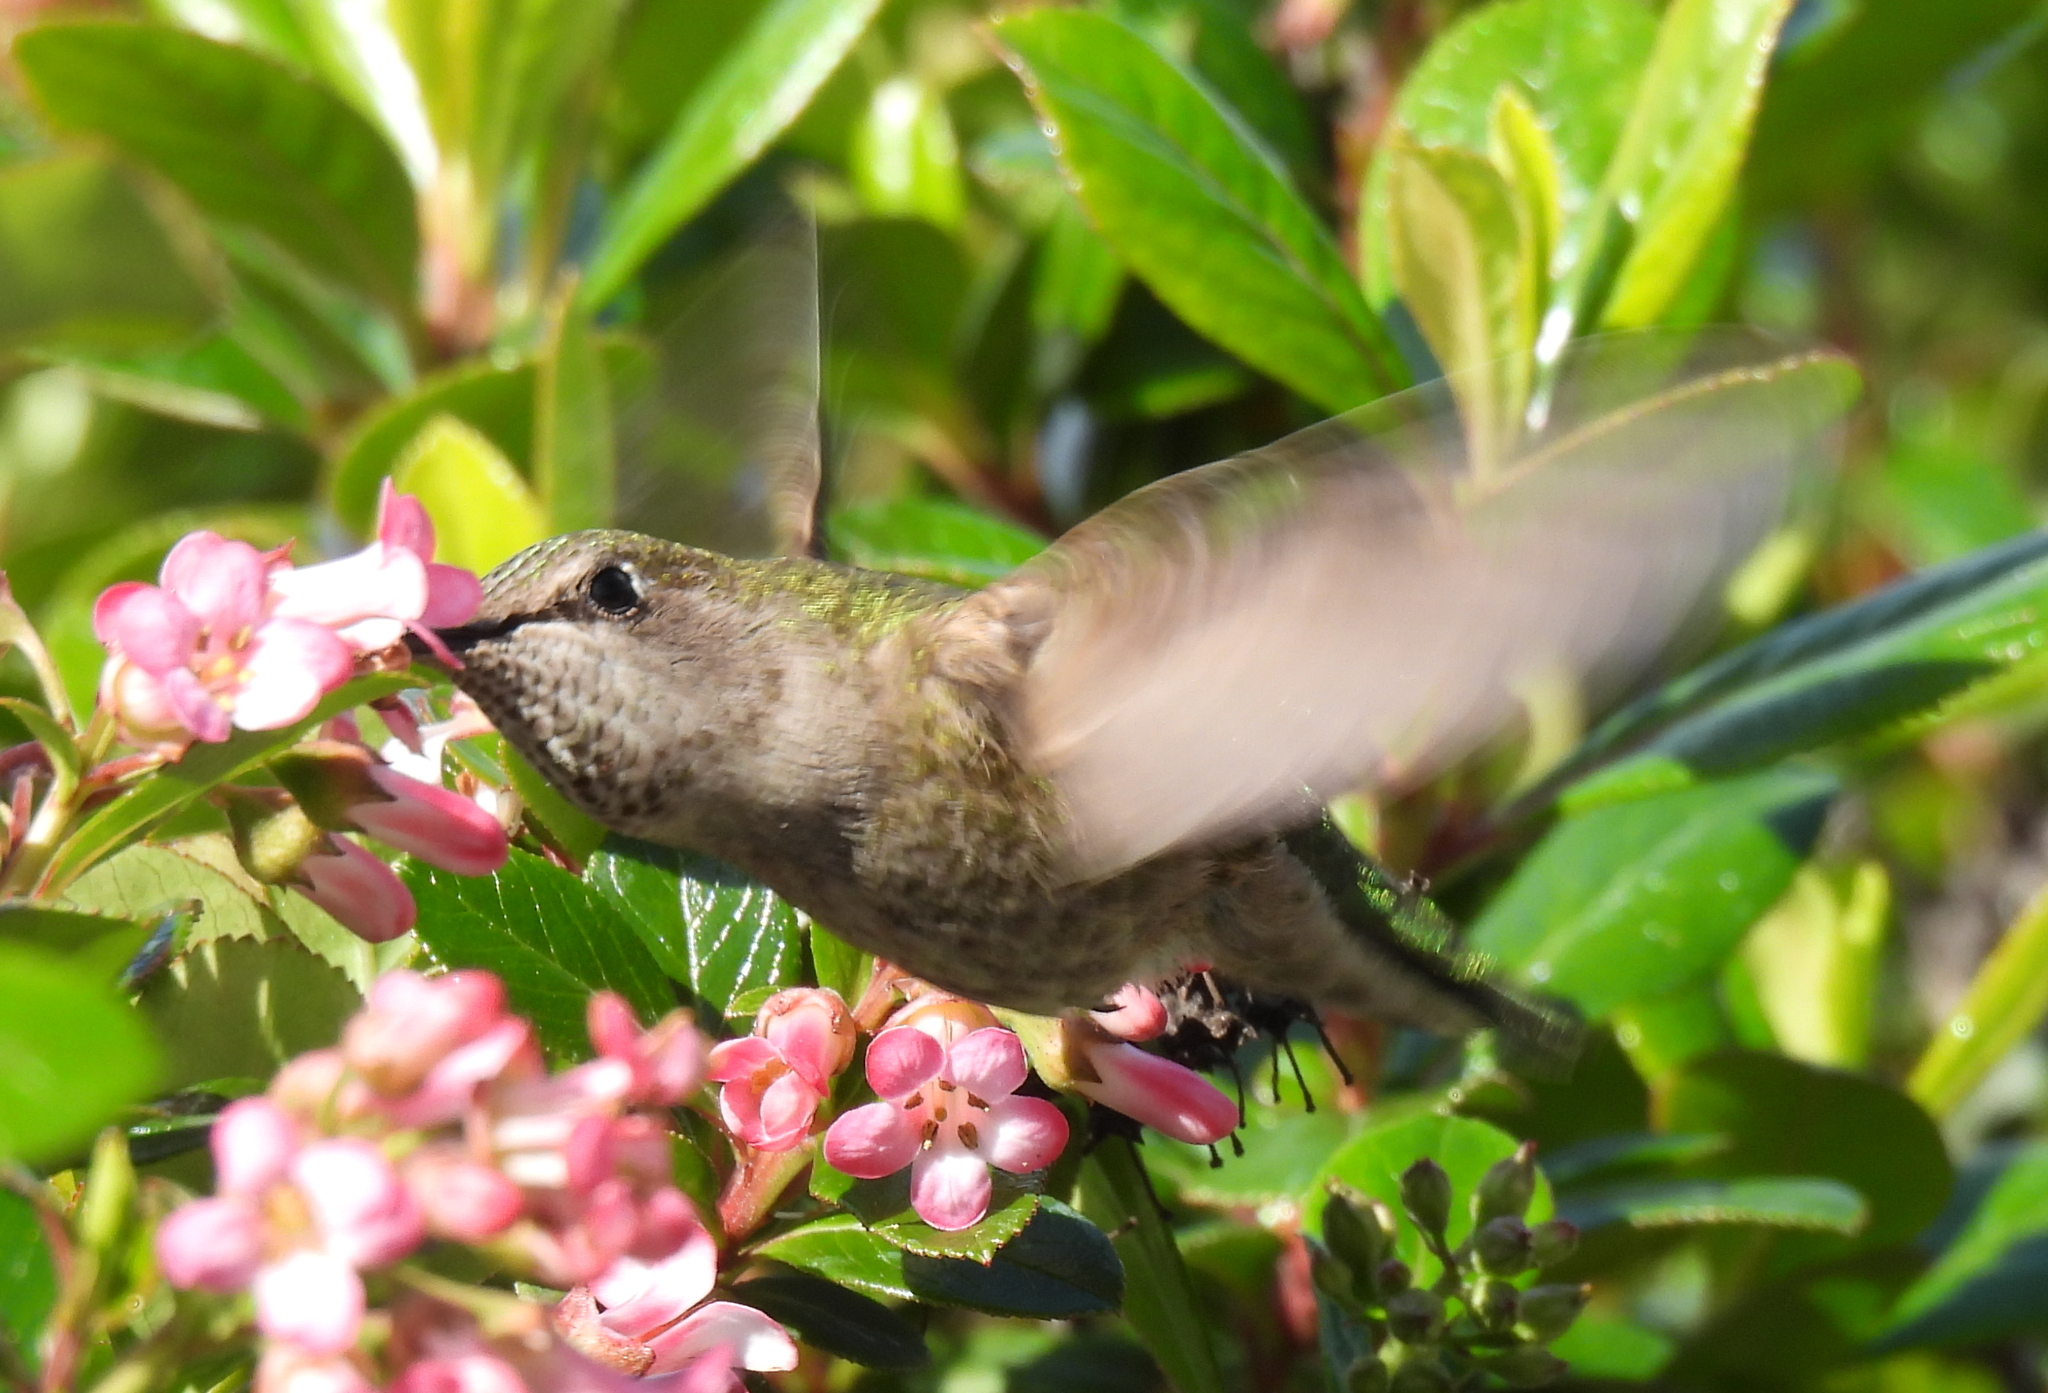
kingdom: Animalia
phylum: Chordata
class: Aves
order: Apodiformes
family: Trochilidae
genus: Calypte
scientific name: Calypte anna
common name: Anna's hummingbird
